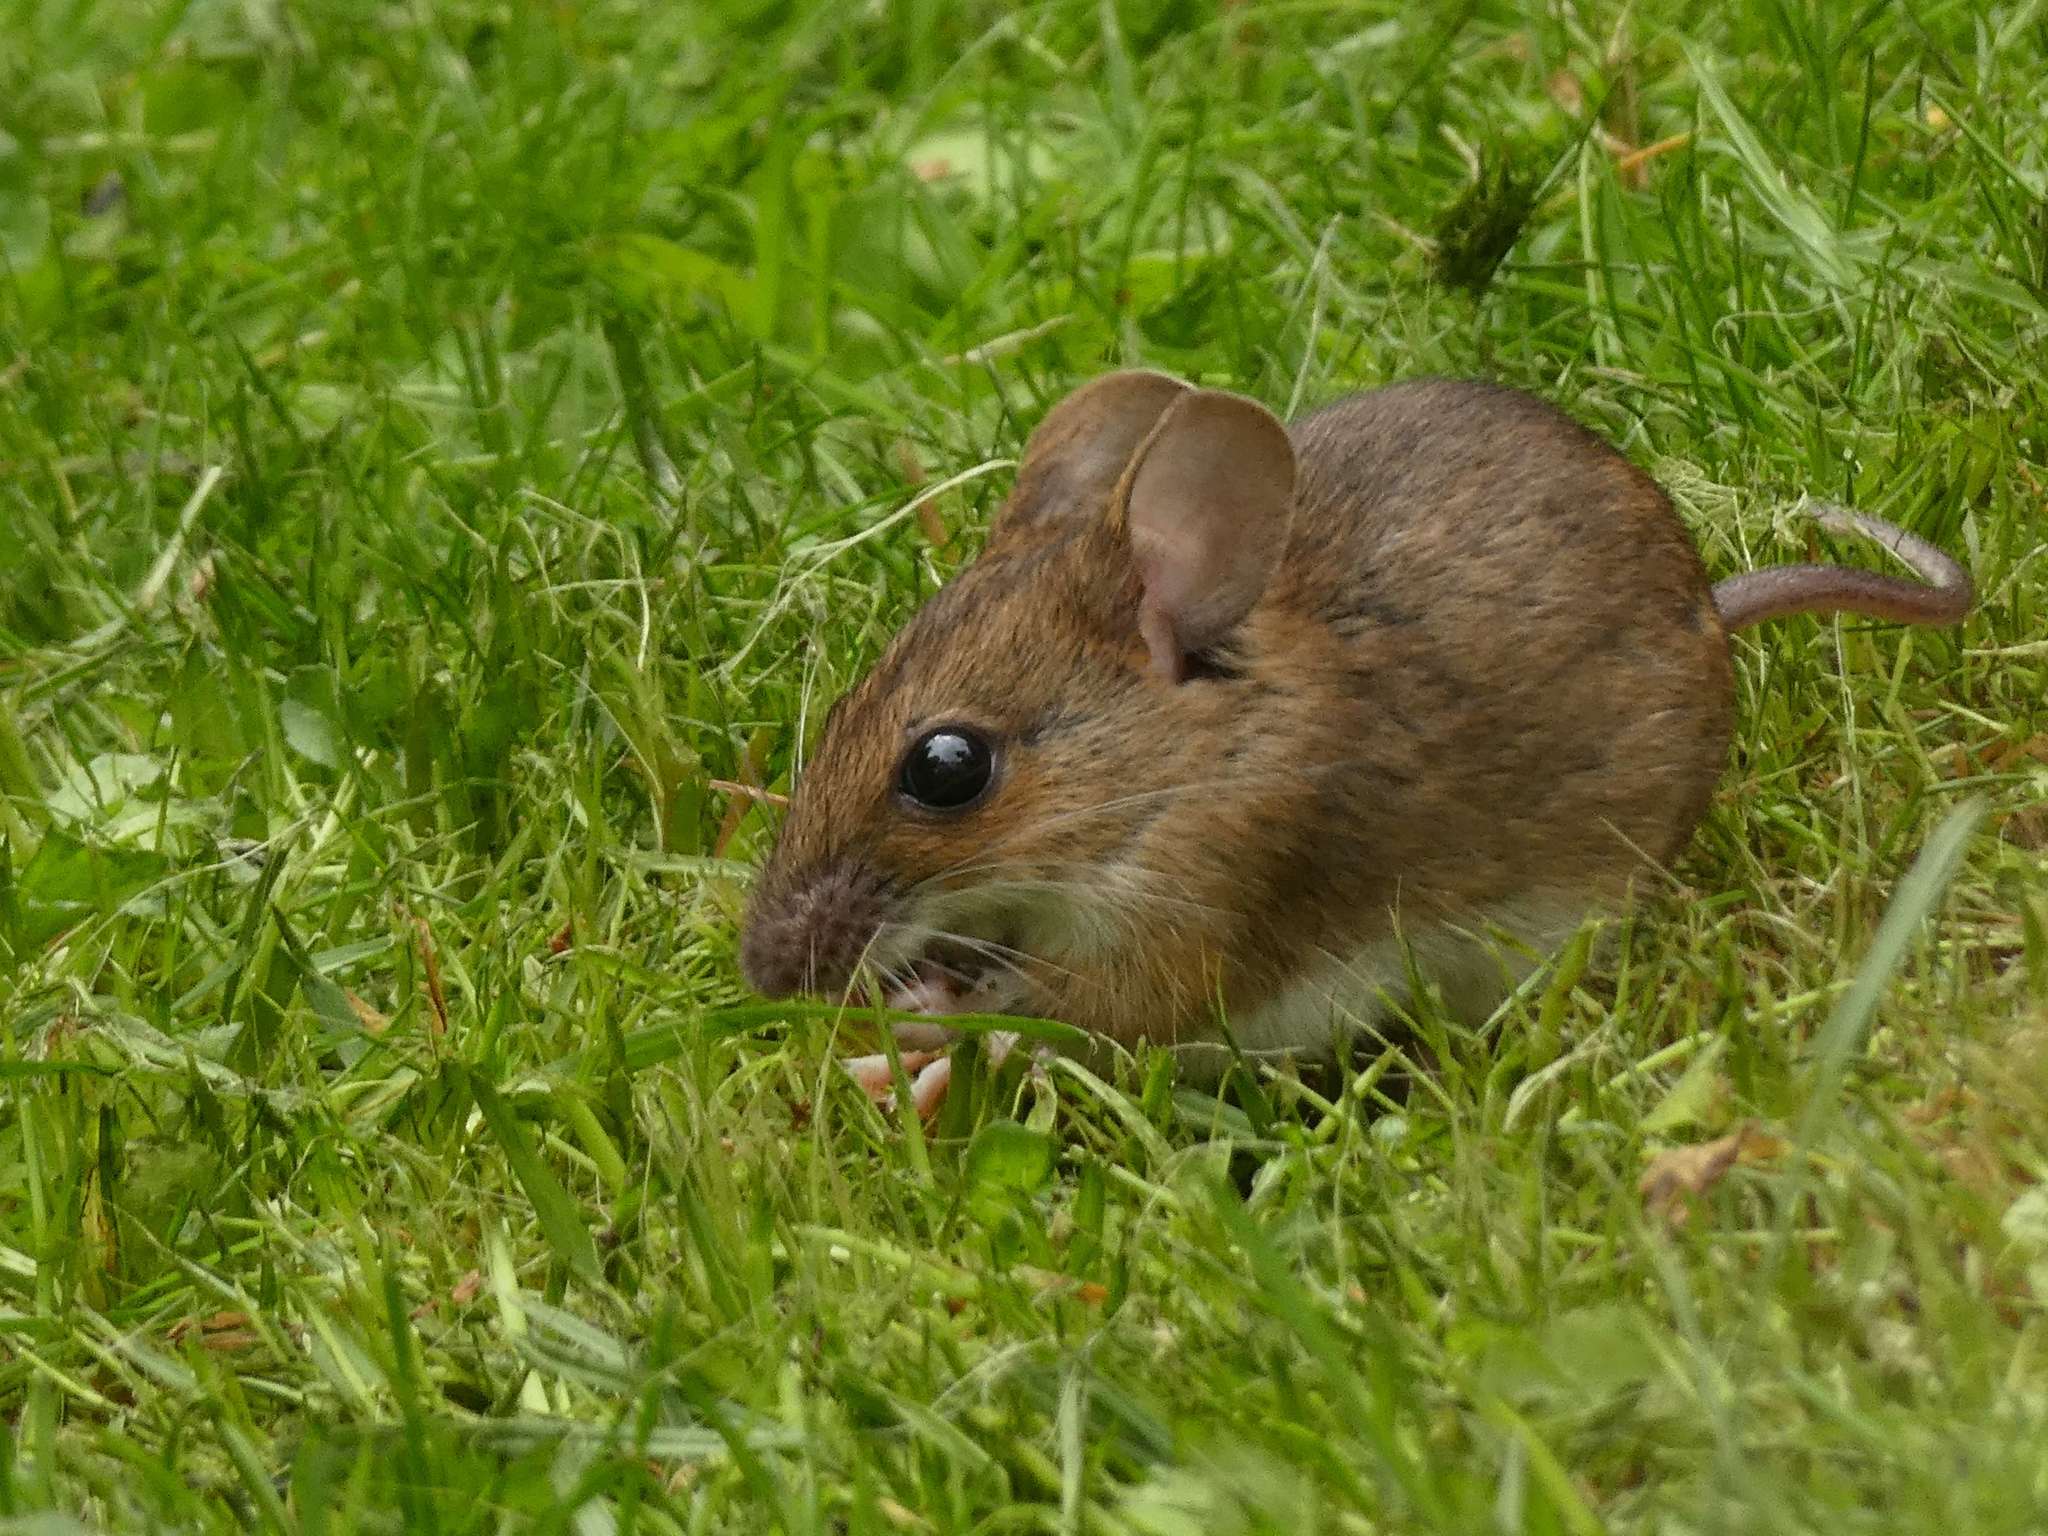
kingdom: Animalia
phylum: Chordata
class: Mammalia
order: Rodentia
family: Muridae
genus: Apodemus
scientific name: Apodemus flavicollis
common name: Yellow-necked field mouse
